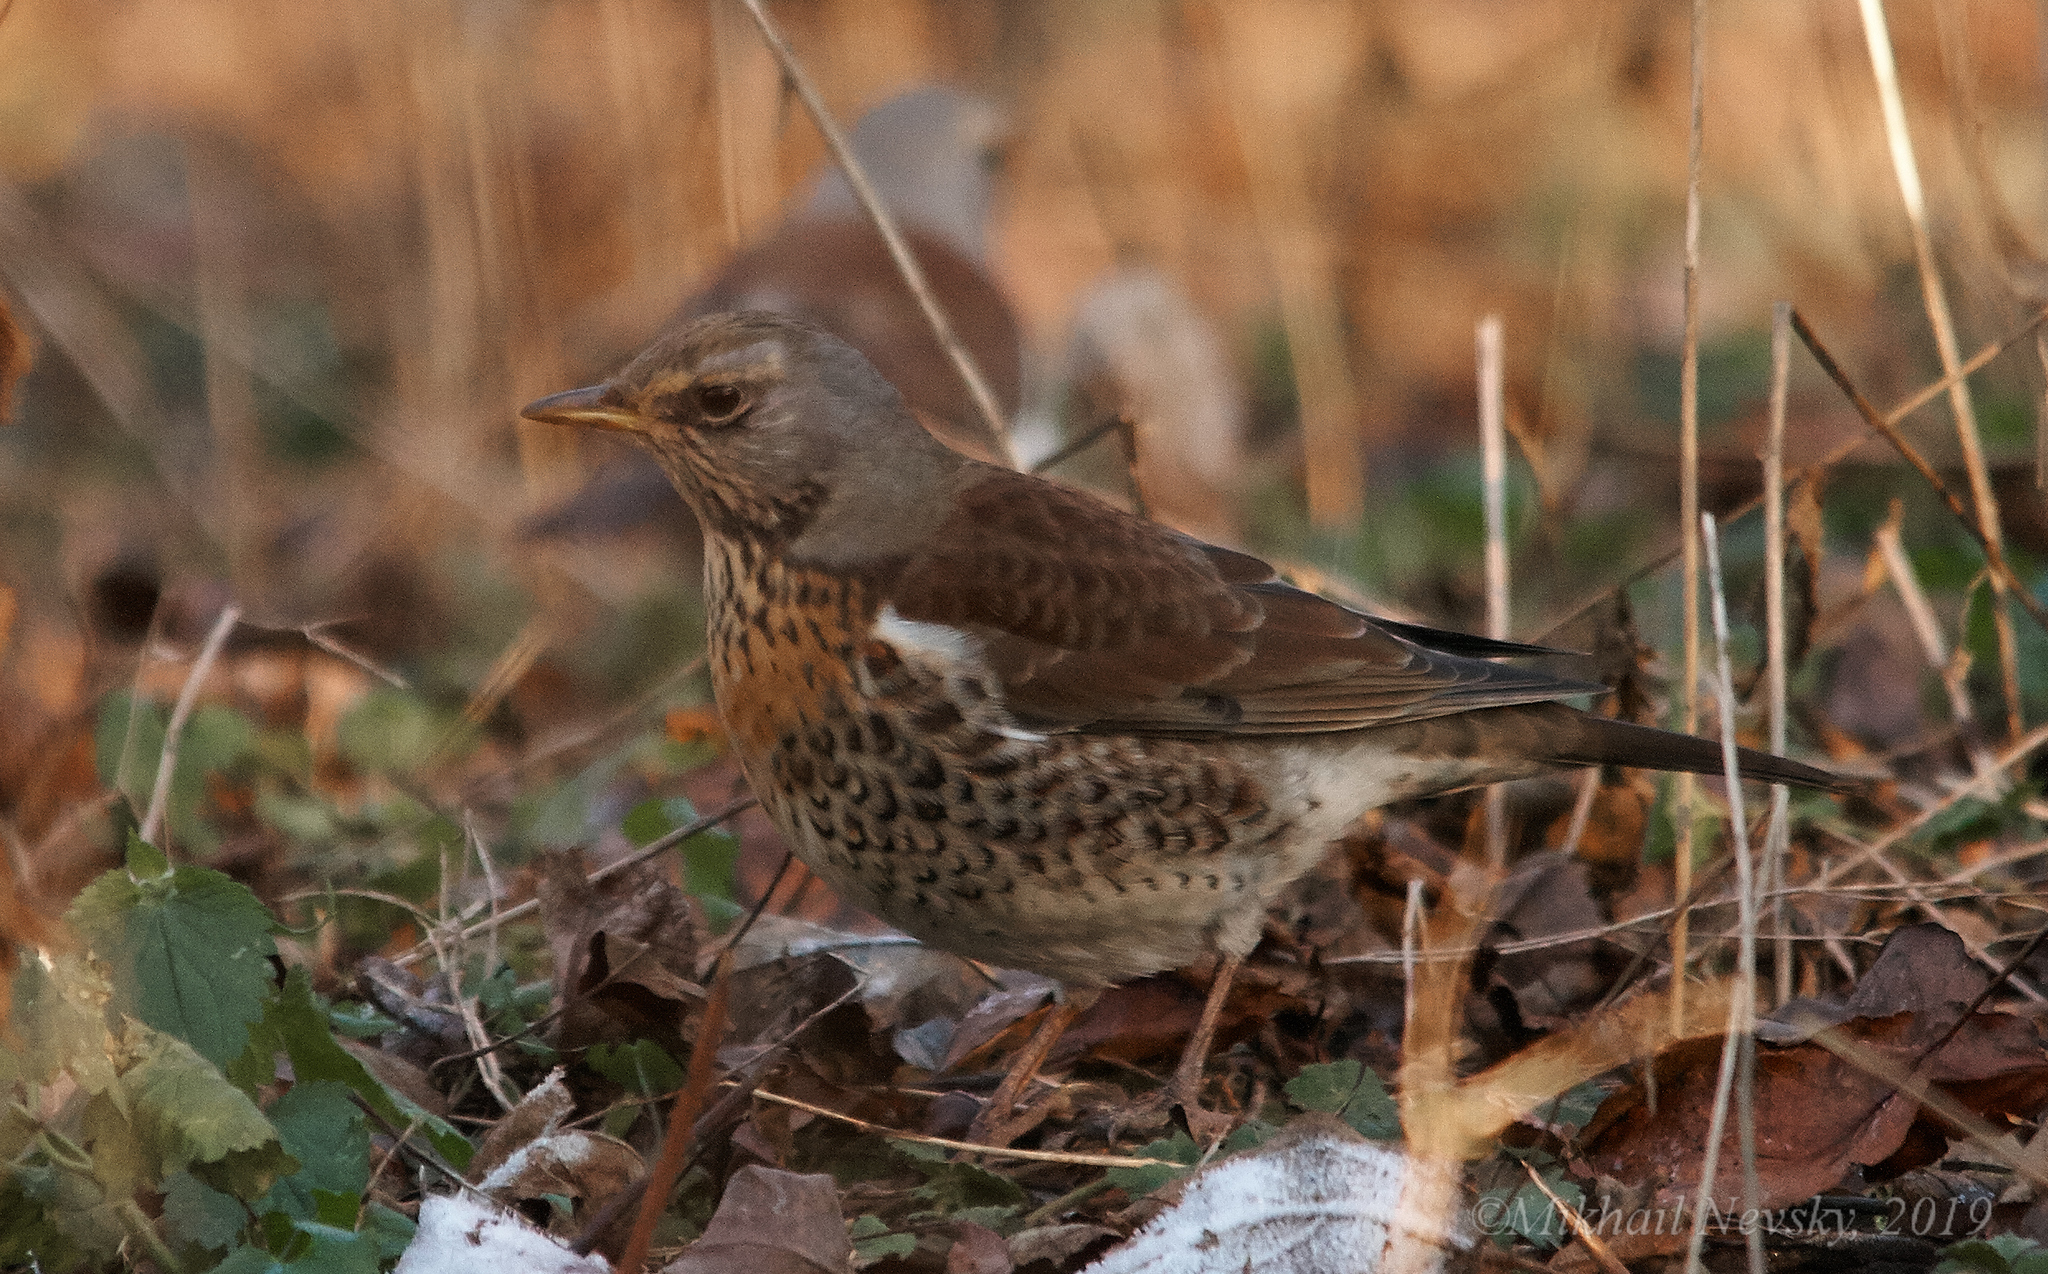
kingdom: Animalia
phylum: Chordata
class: Aves
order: Passeriformes
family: Turdidae
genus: Turdus
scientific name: Turdus pilaris
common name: Fieldfare
